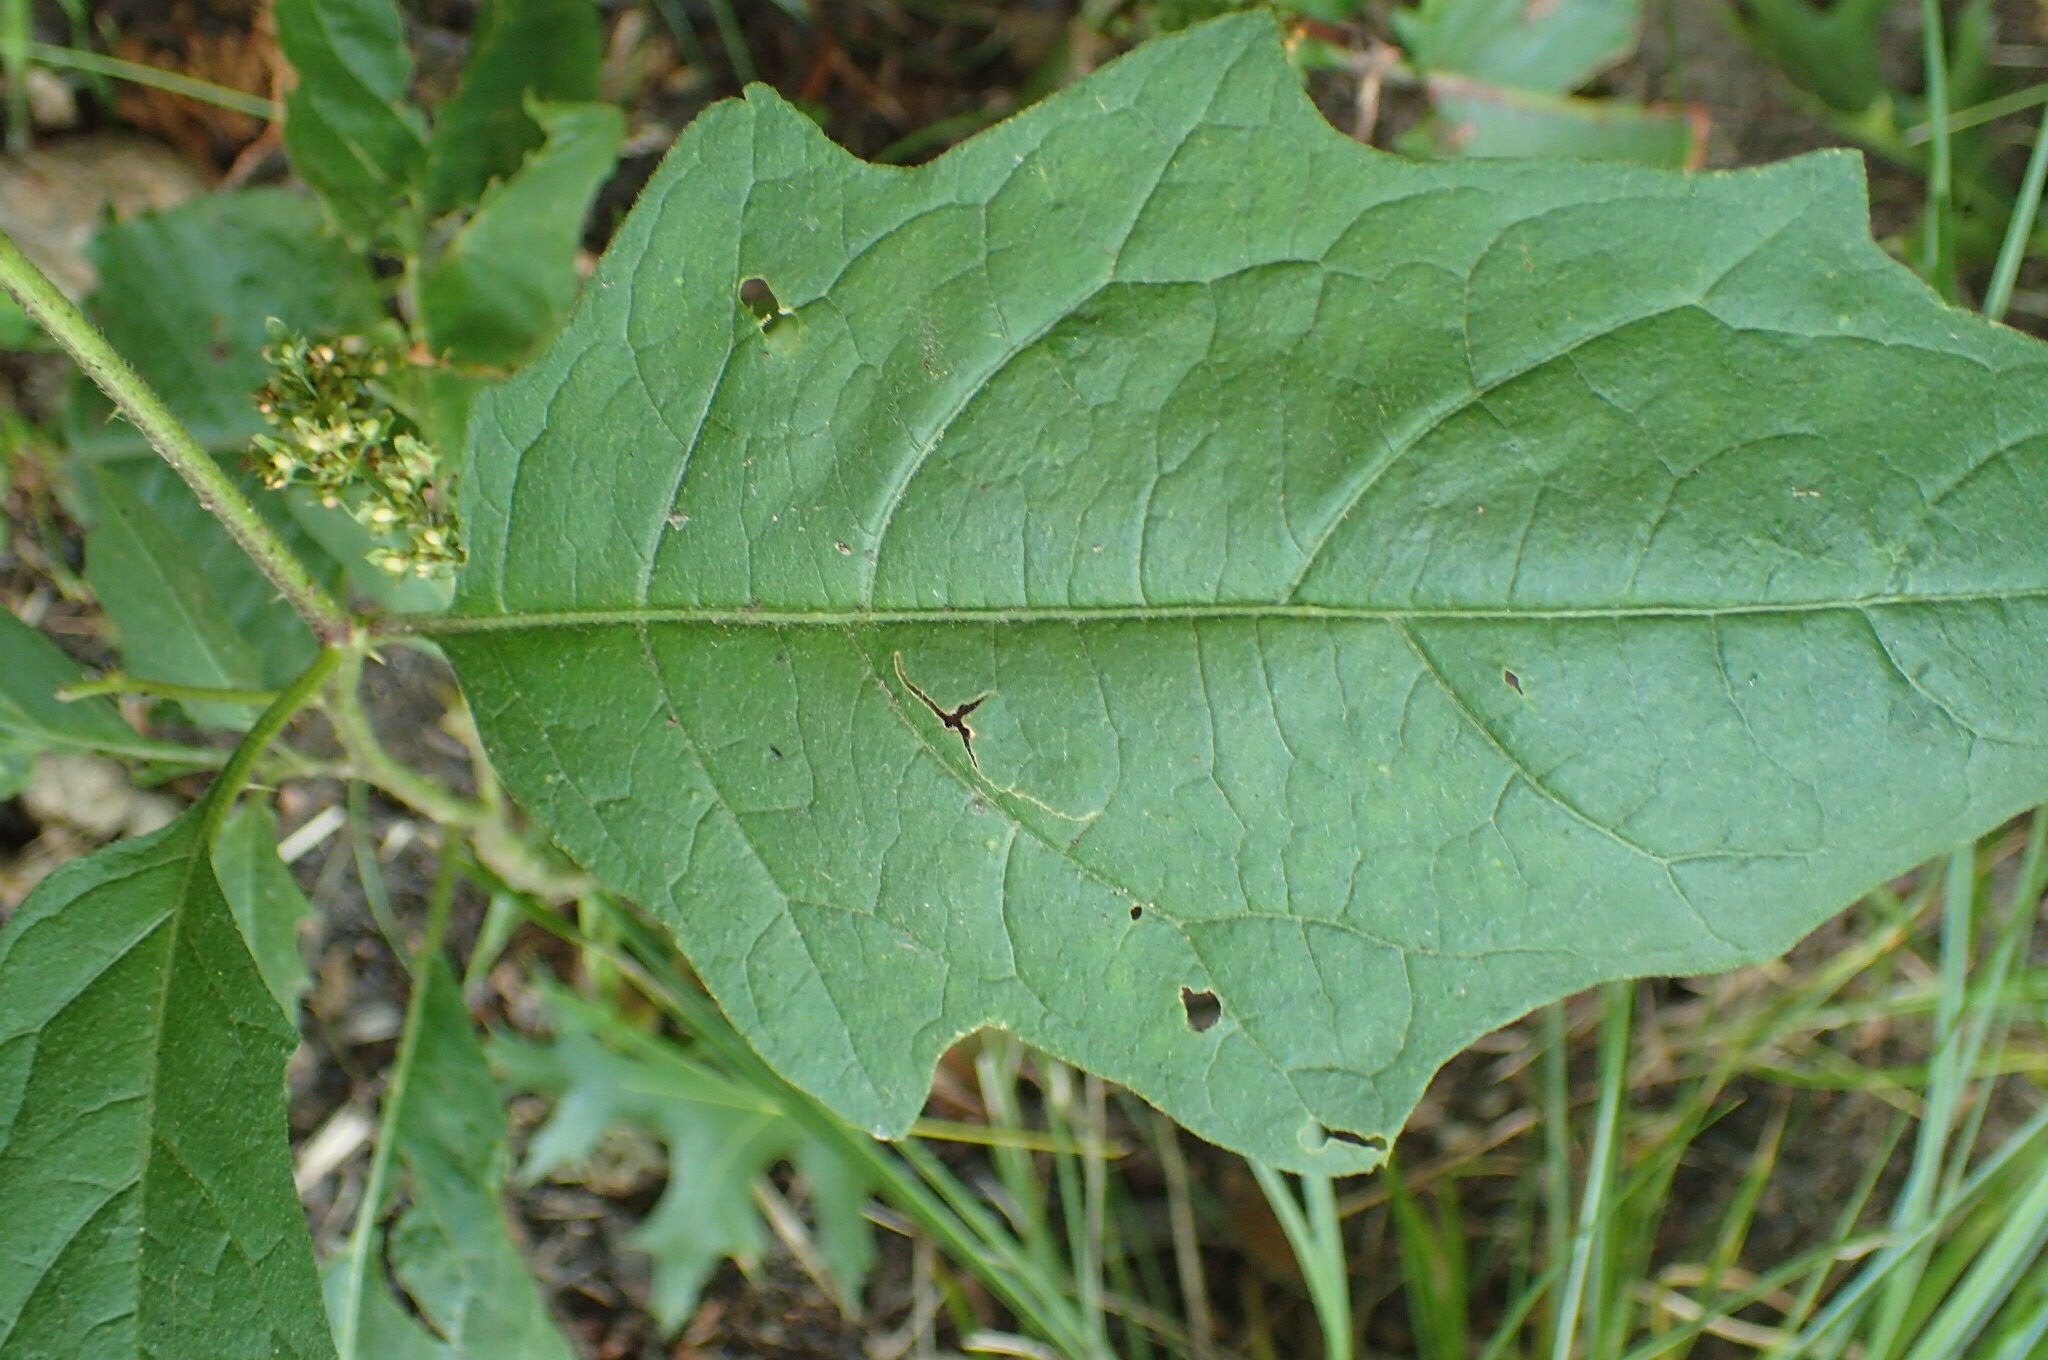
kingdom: Plantae
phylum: Tracheophyta
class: Magnoliopsida
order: Solanales
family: Solanaceae
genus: Solanum
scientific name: Solanum carolinense
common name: Horse-nettle
